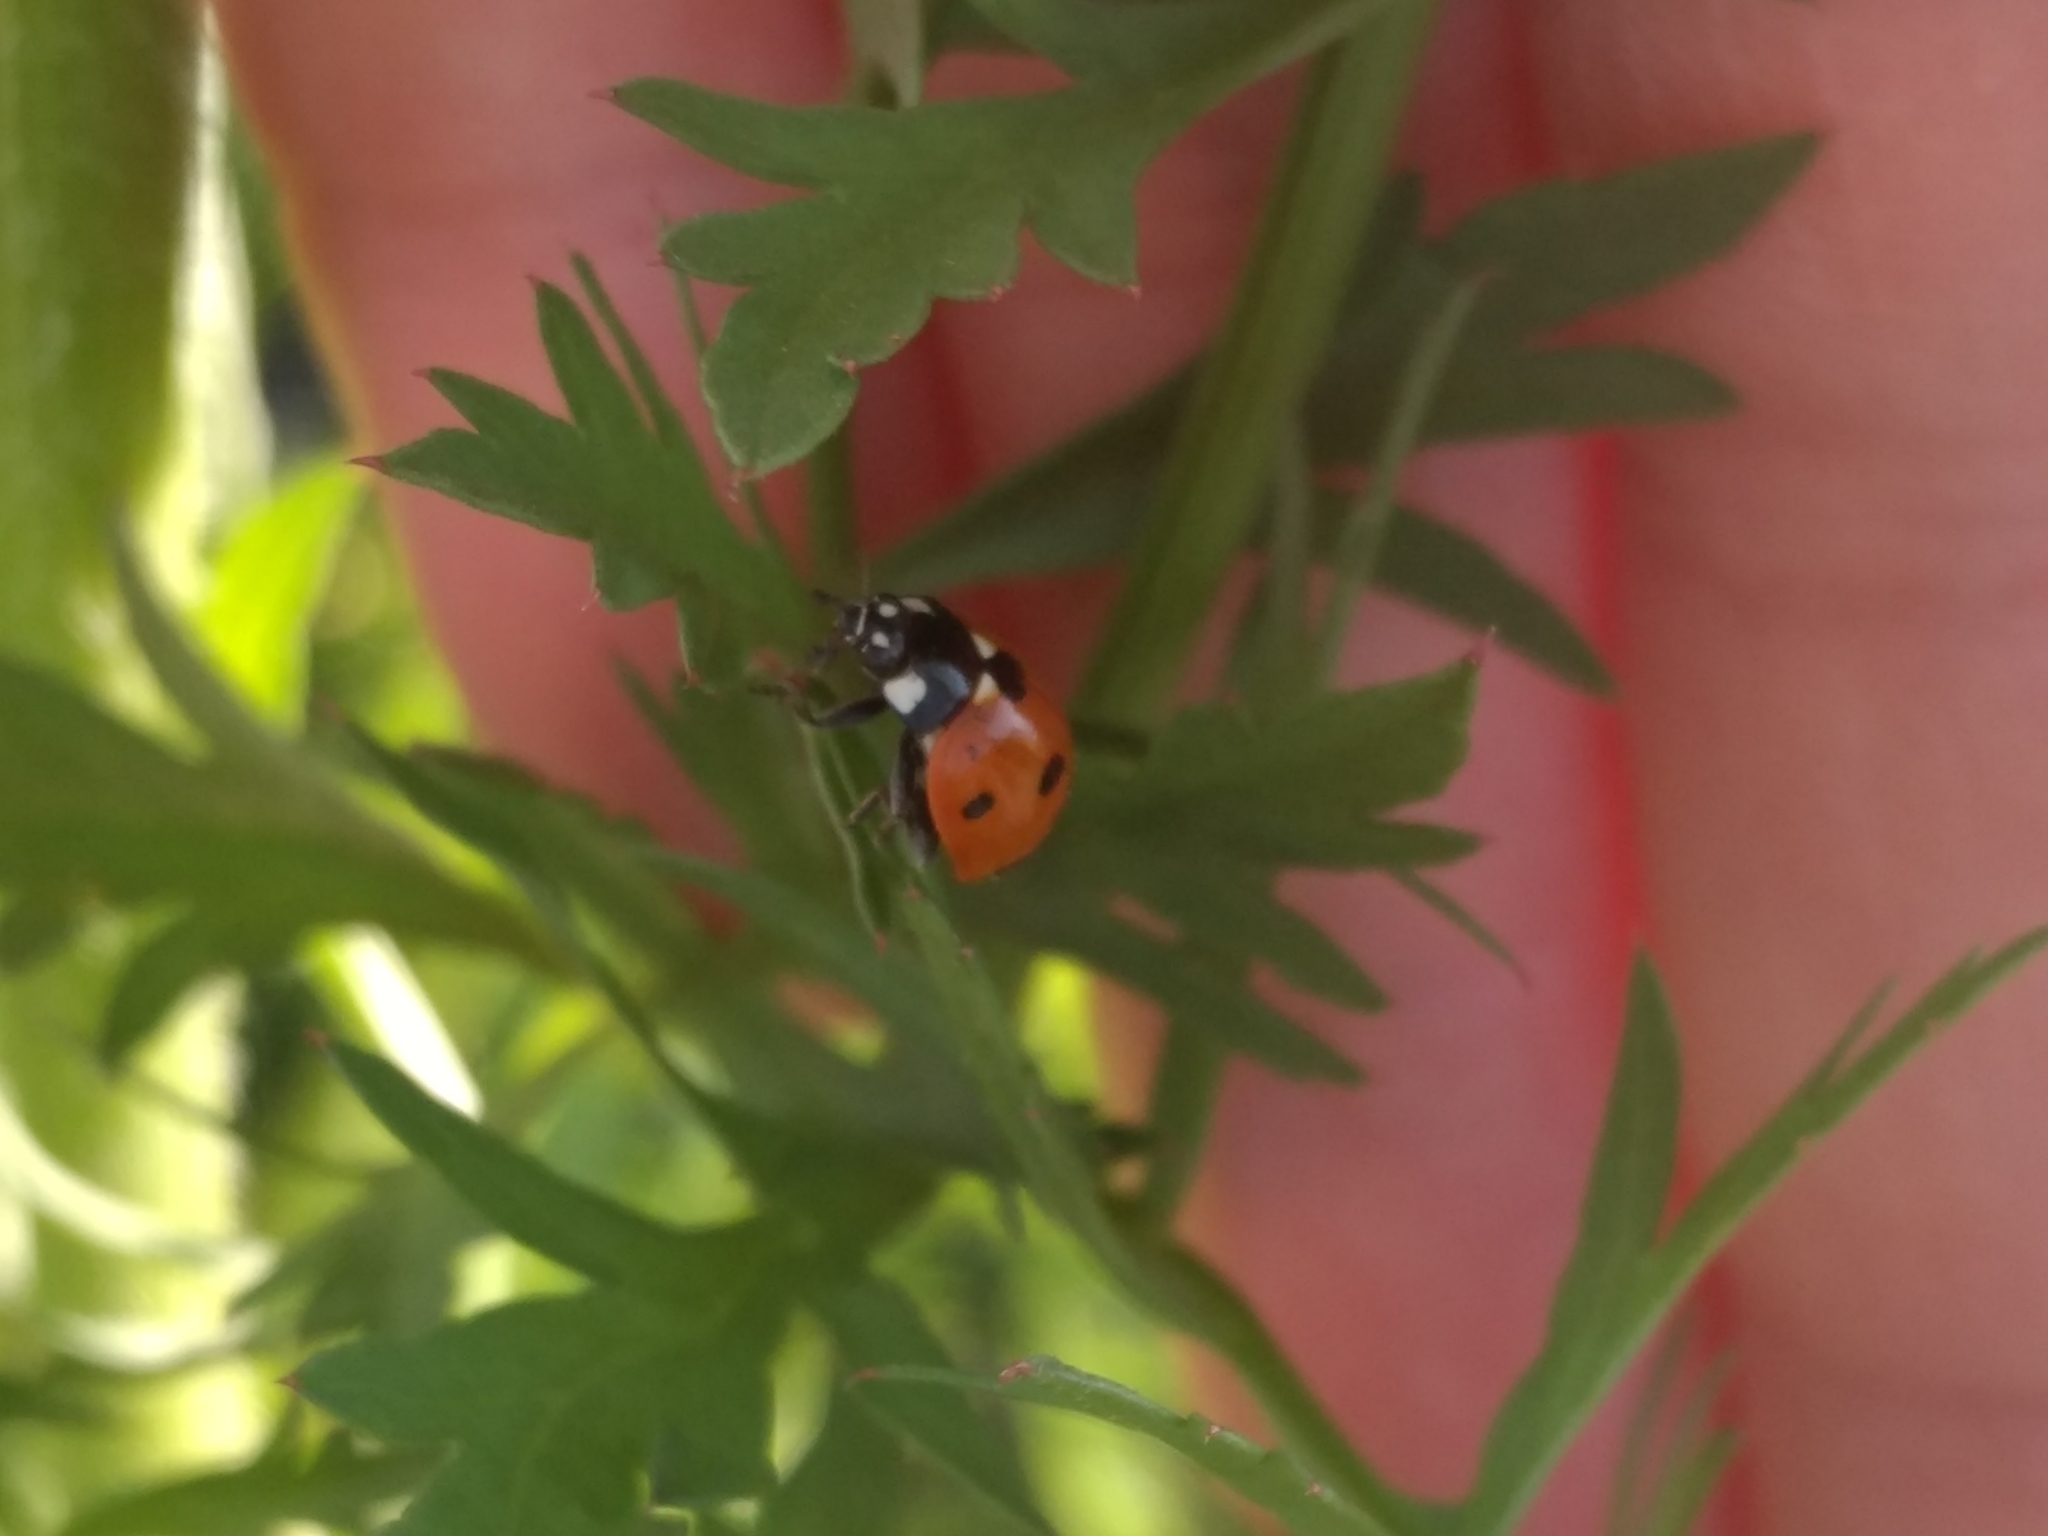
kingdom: Animalia
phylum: Arthropoda
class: Insecta
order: Coleoptera
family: Coccinellidae
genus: Coccinella
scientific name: Coccinella septempunctata
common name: Sevenspotted lady beetle
